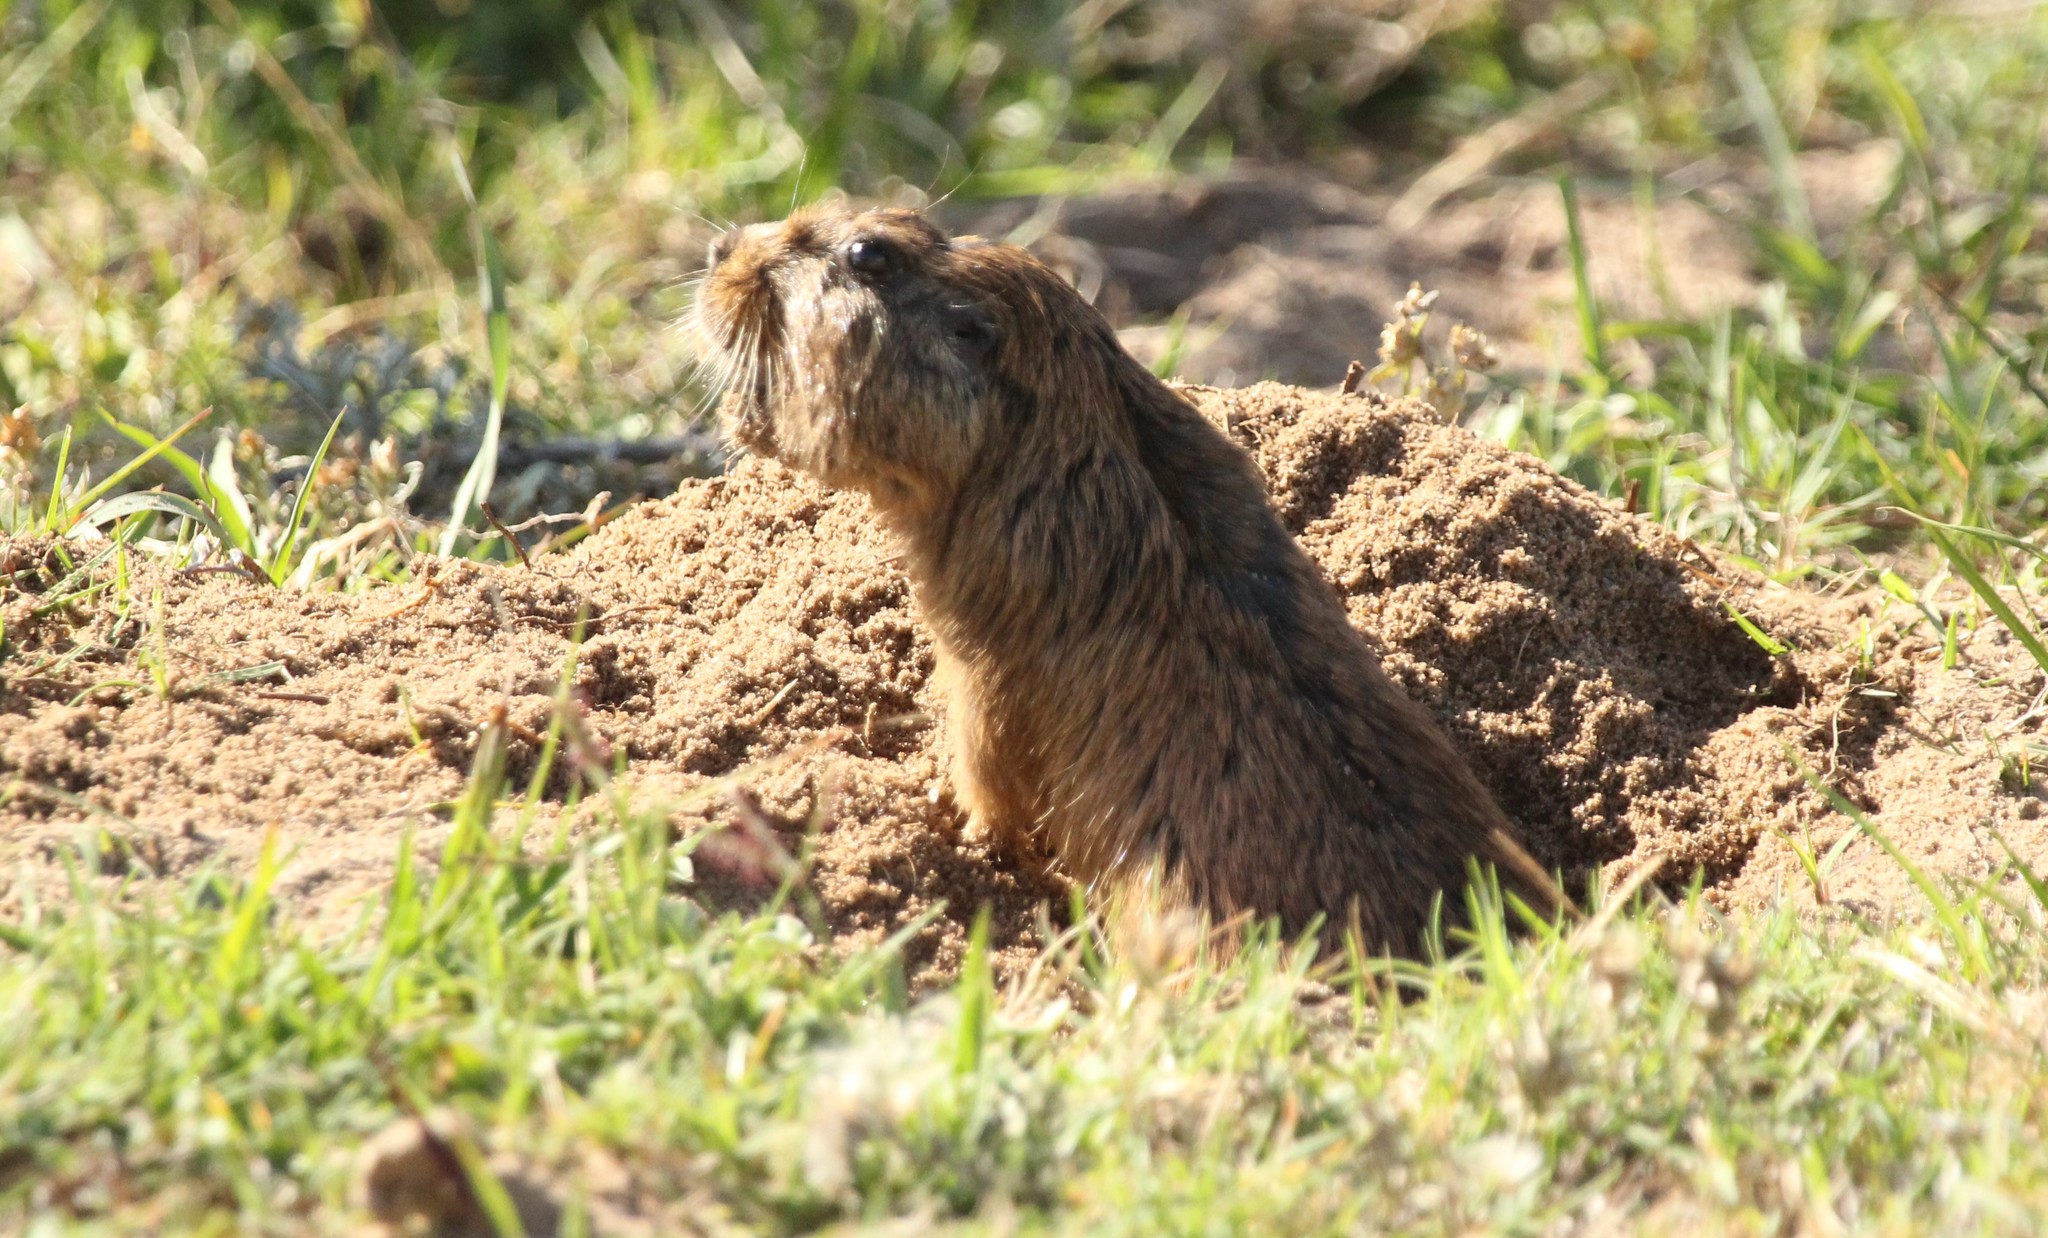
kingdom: Animalia
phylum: Chordata
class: Mammalia
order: Rodentia
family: Ctenomyidae
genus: Ctenomys
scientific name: Ctenomys pearsoni
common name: Pearson's tuco-tuco
